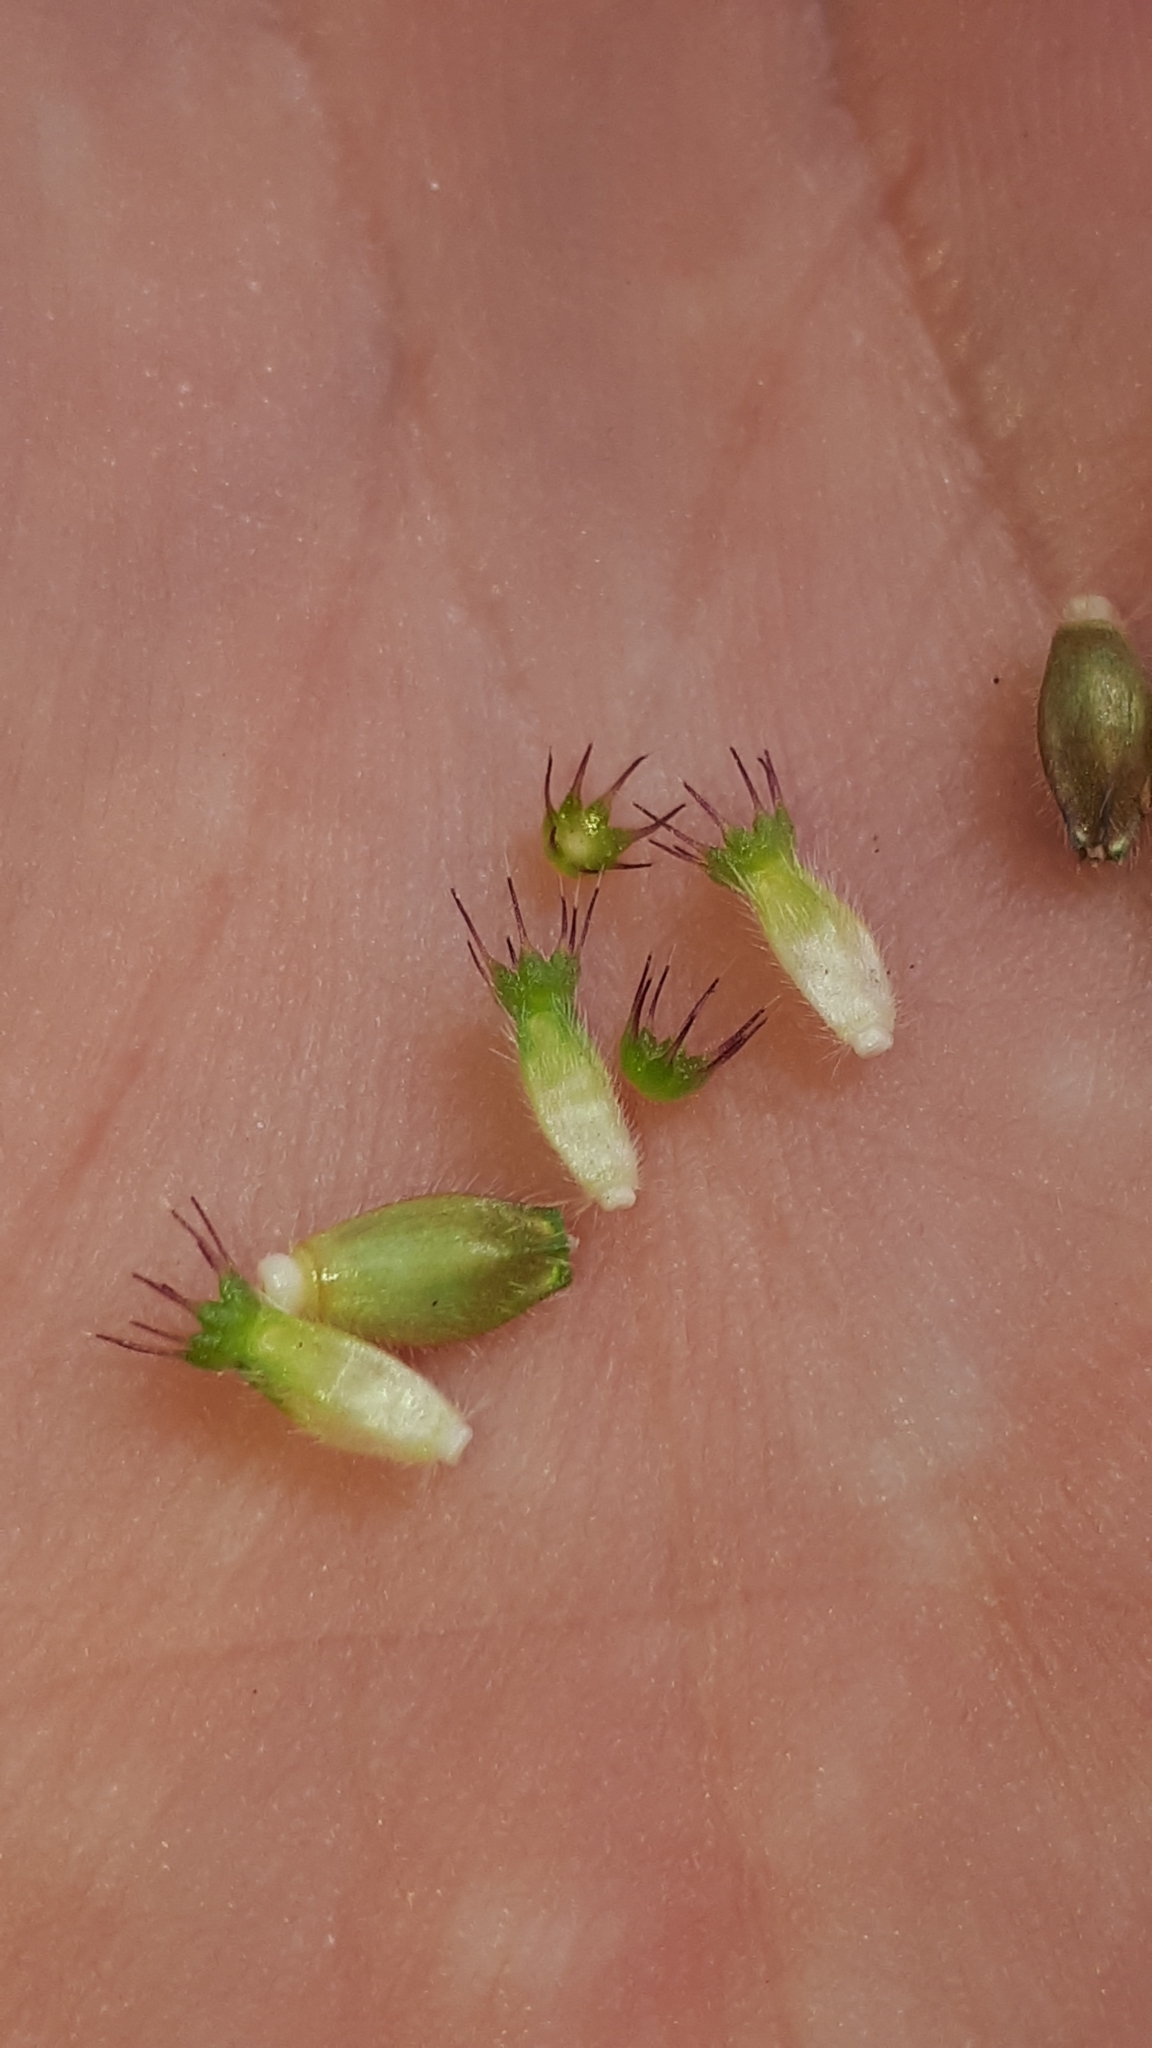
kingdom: Plantae
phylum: Tracheophyta
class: Magnoliopsida
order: Dipsacales
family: Caprifoliaceae
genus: Knautia
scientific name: Knautia dipsacifolia
